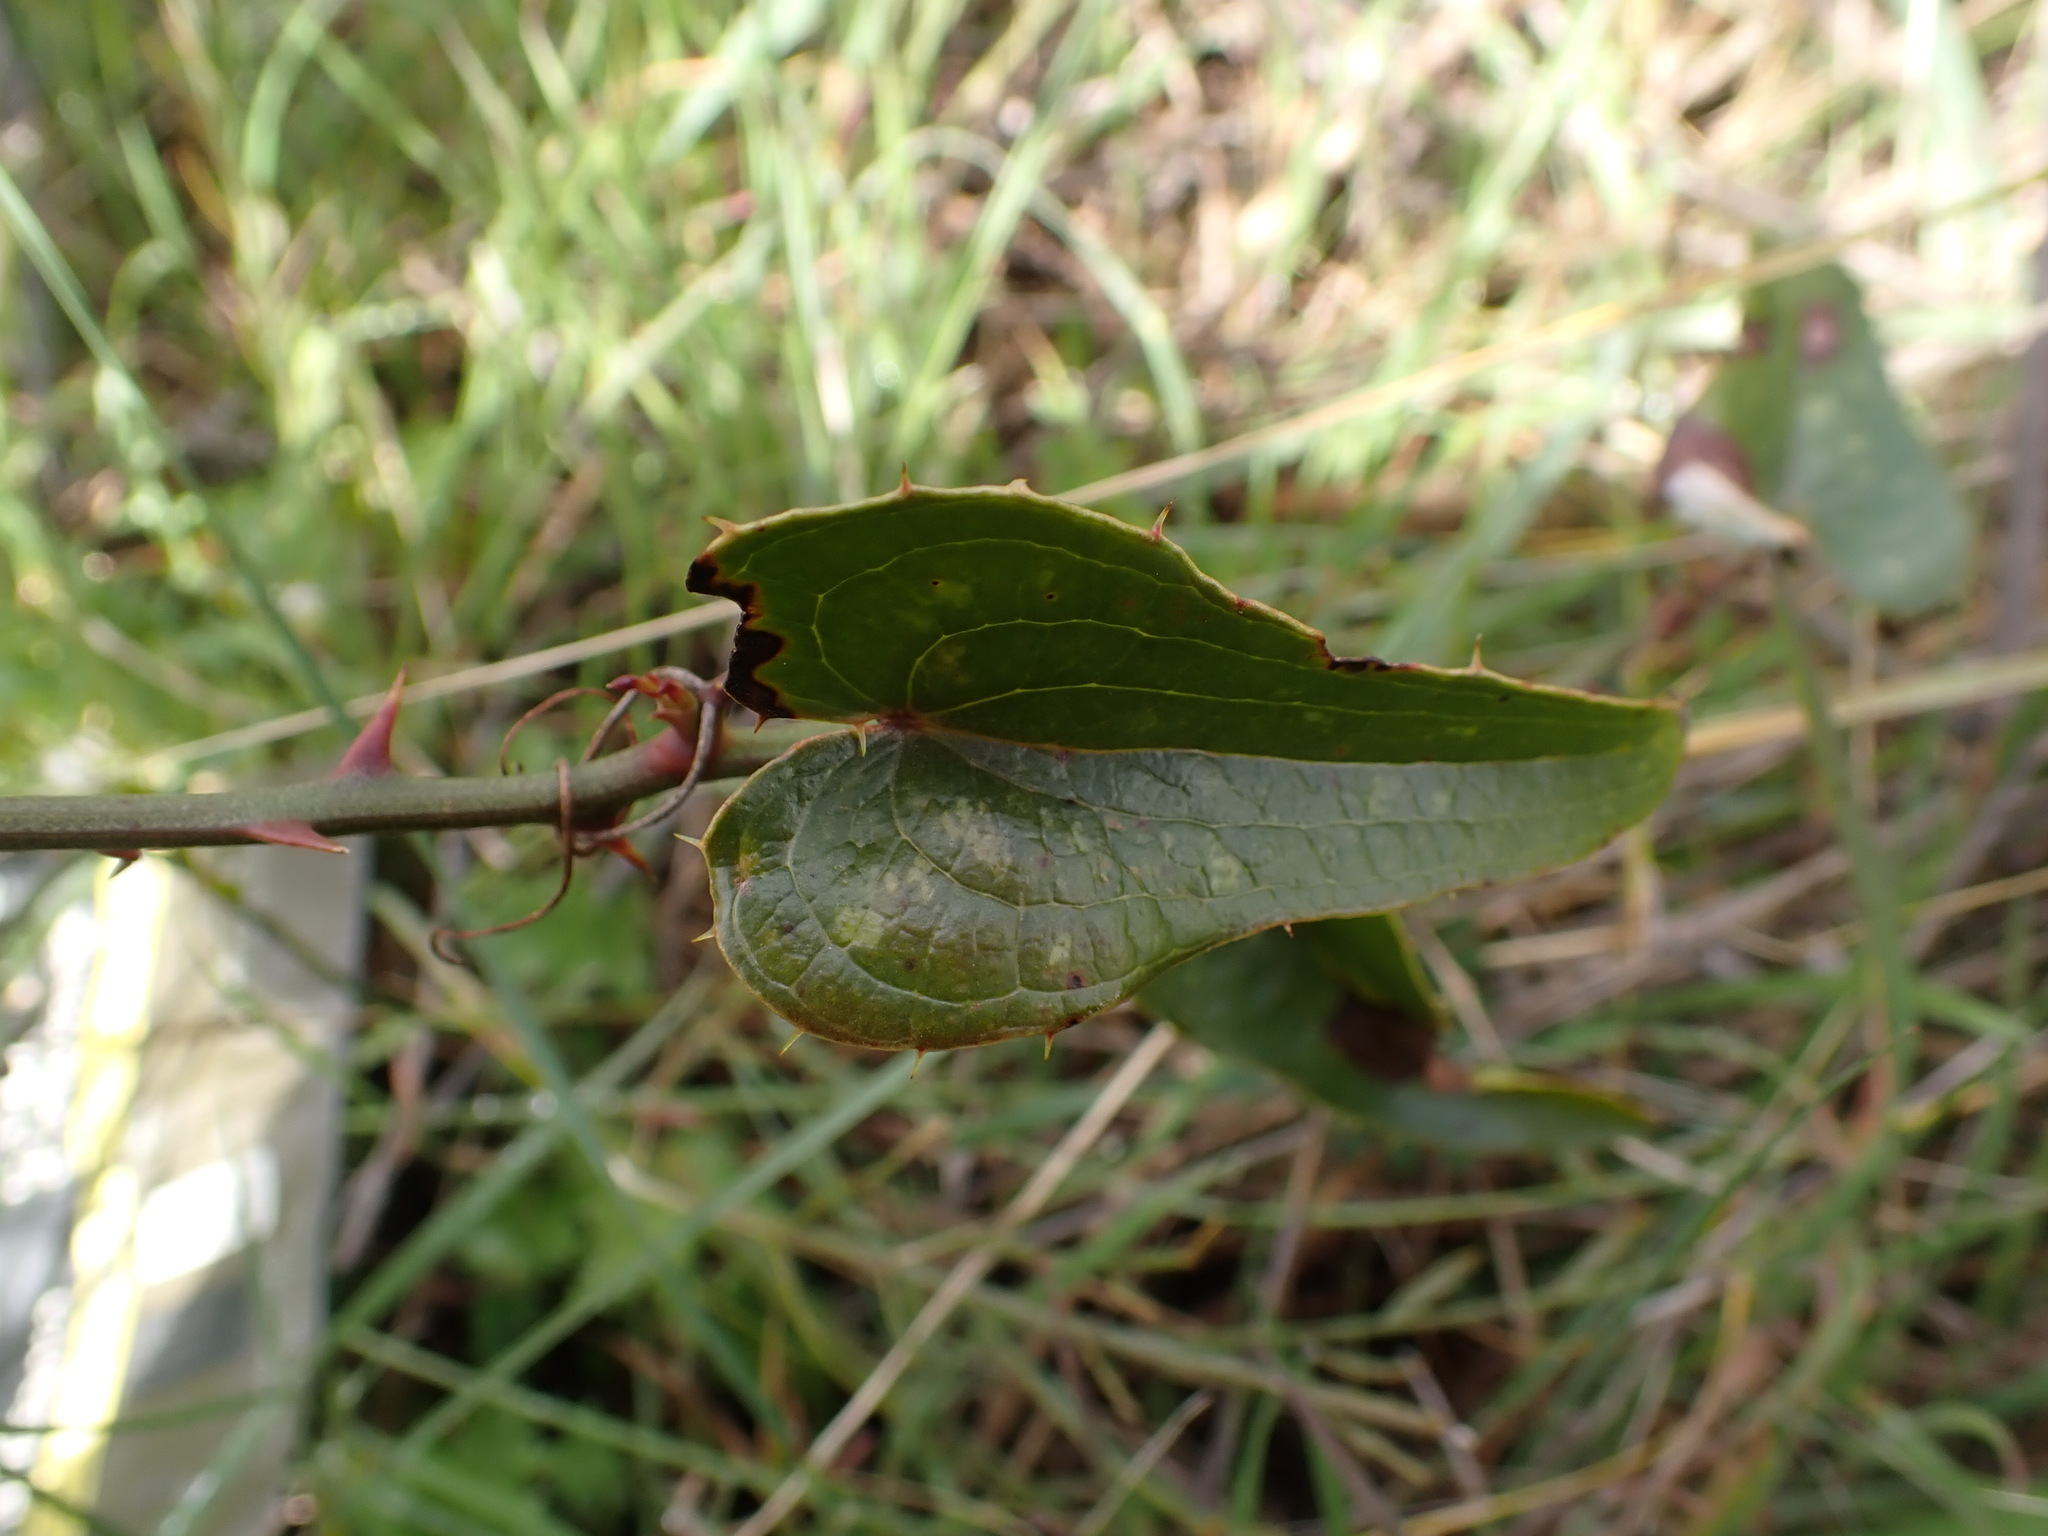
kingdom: Plantae
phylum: Tracheophyta
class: Liliopsida
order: Liliales
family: Smilacaceae
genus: Smilax
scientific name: Smilax aspera
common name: Common smilax
